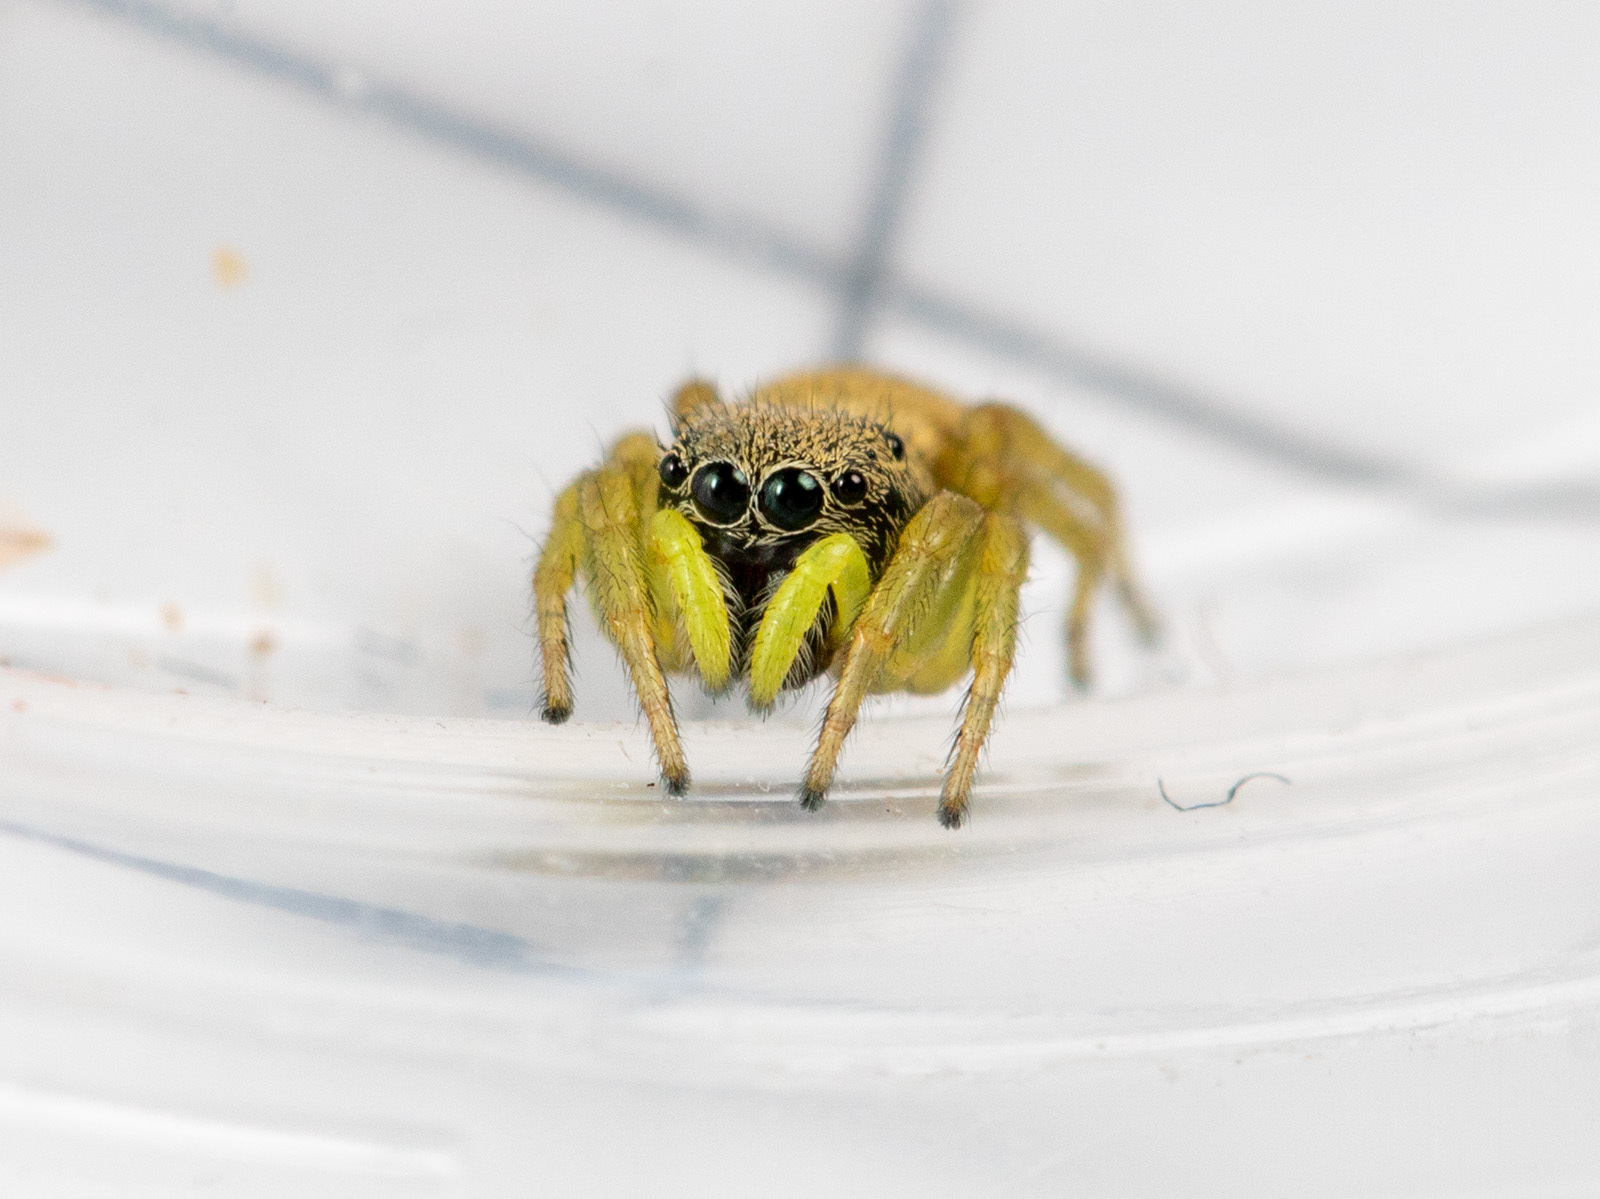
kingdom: Animalia
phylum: Arthropoda
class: Arachnida
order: Araneae
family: Salticidae
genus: Heliophanus
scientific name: Heliophanus forcipifer
